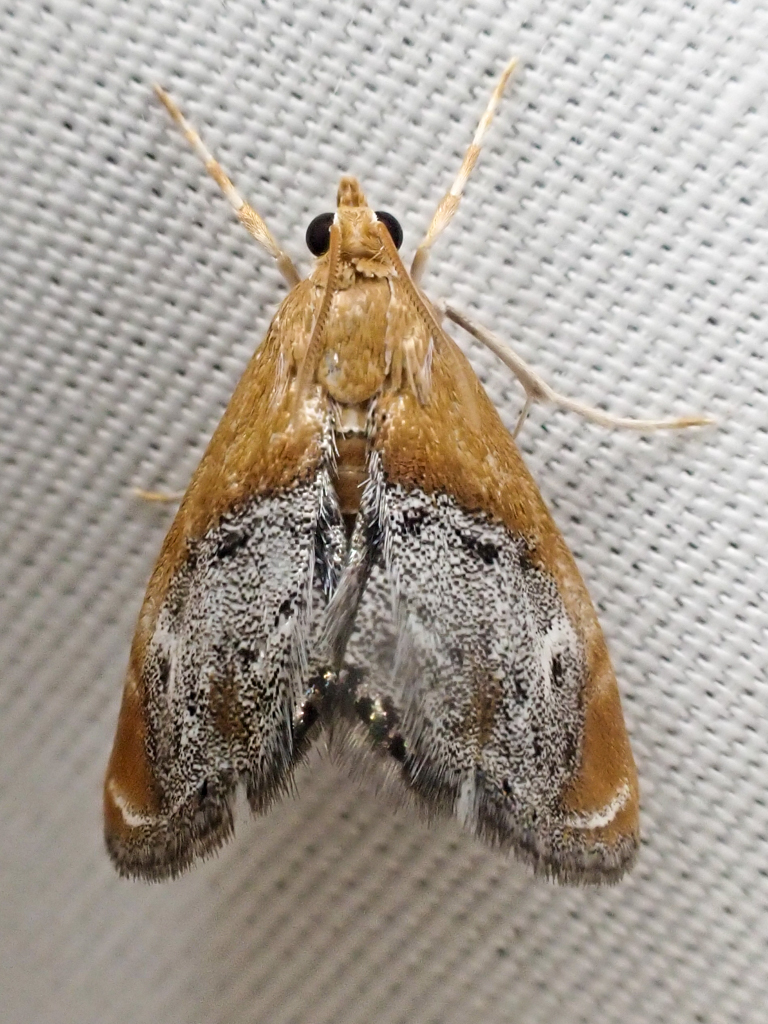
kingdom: Animalia
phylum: Arthropoda
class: Insecta
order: Lepidoptera
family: Crambidae
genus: Chalcoela
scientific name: Chalcoela iphitalis
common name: Sooty-winged chalcoela moth
